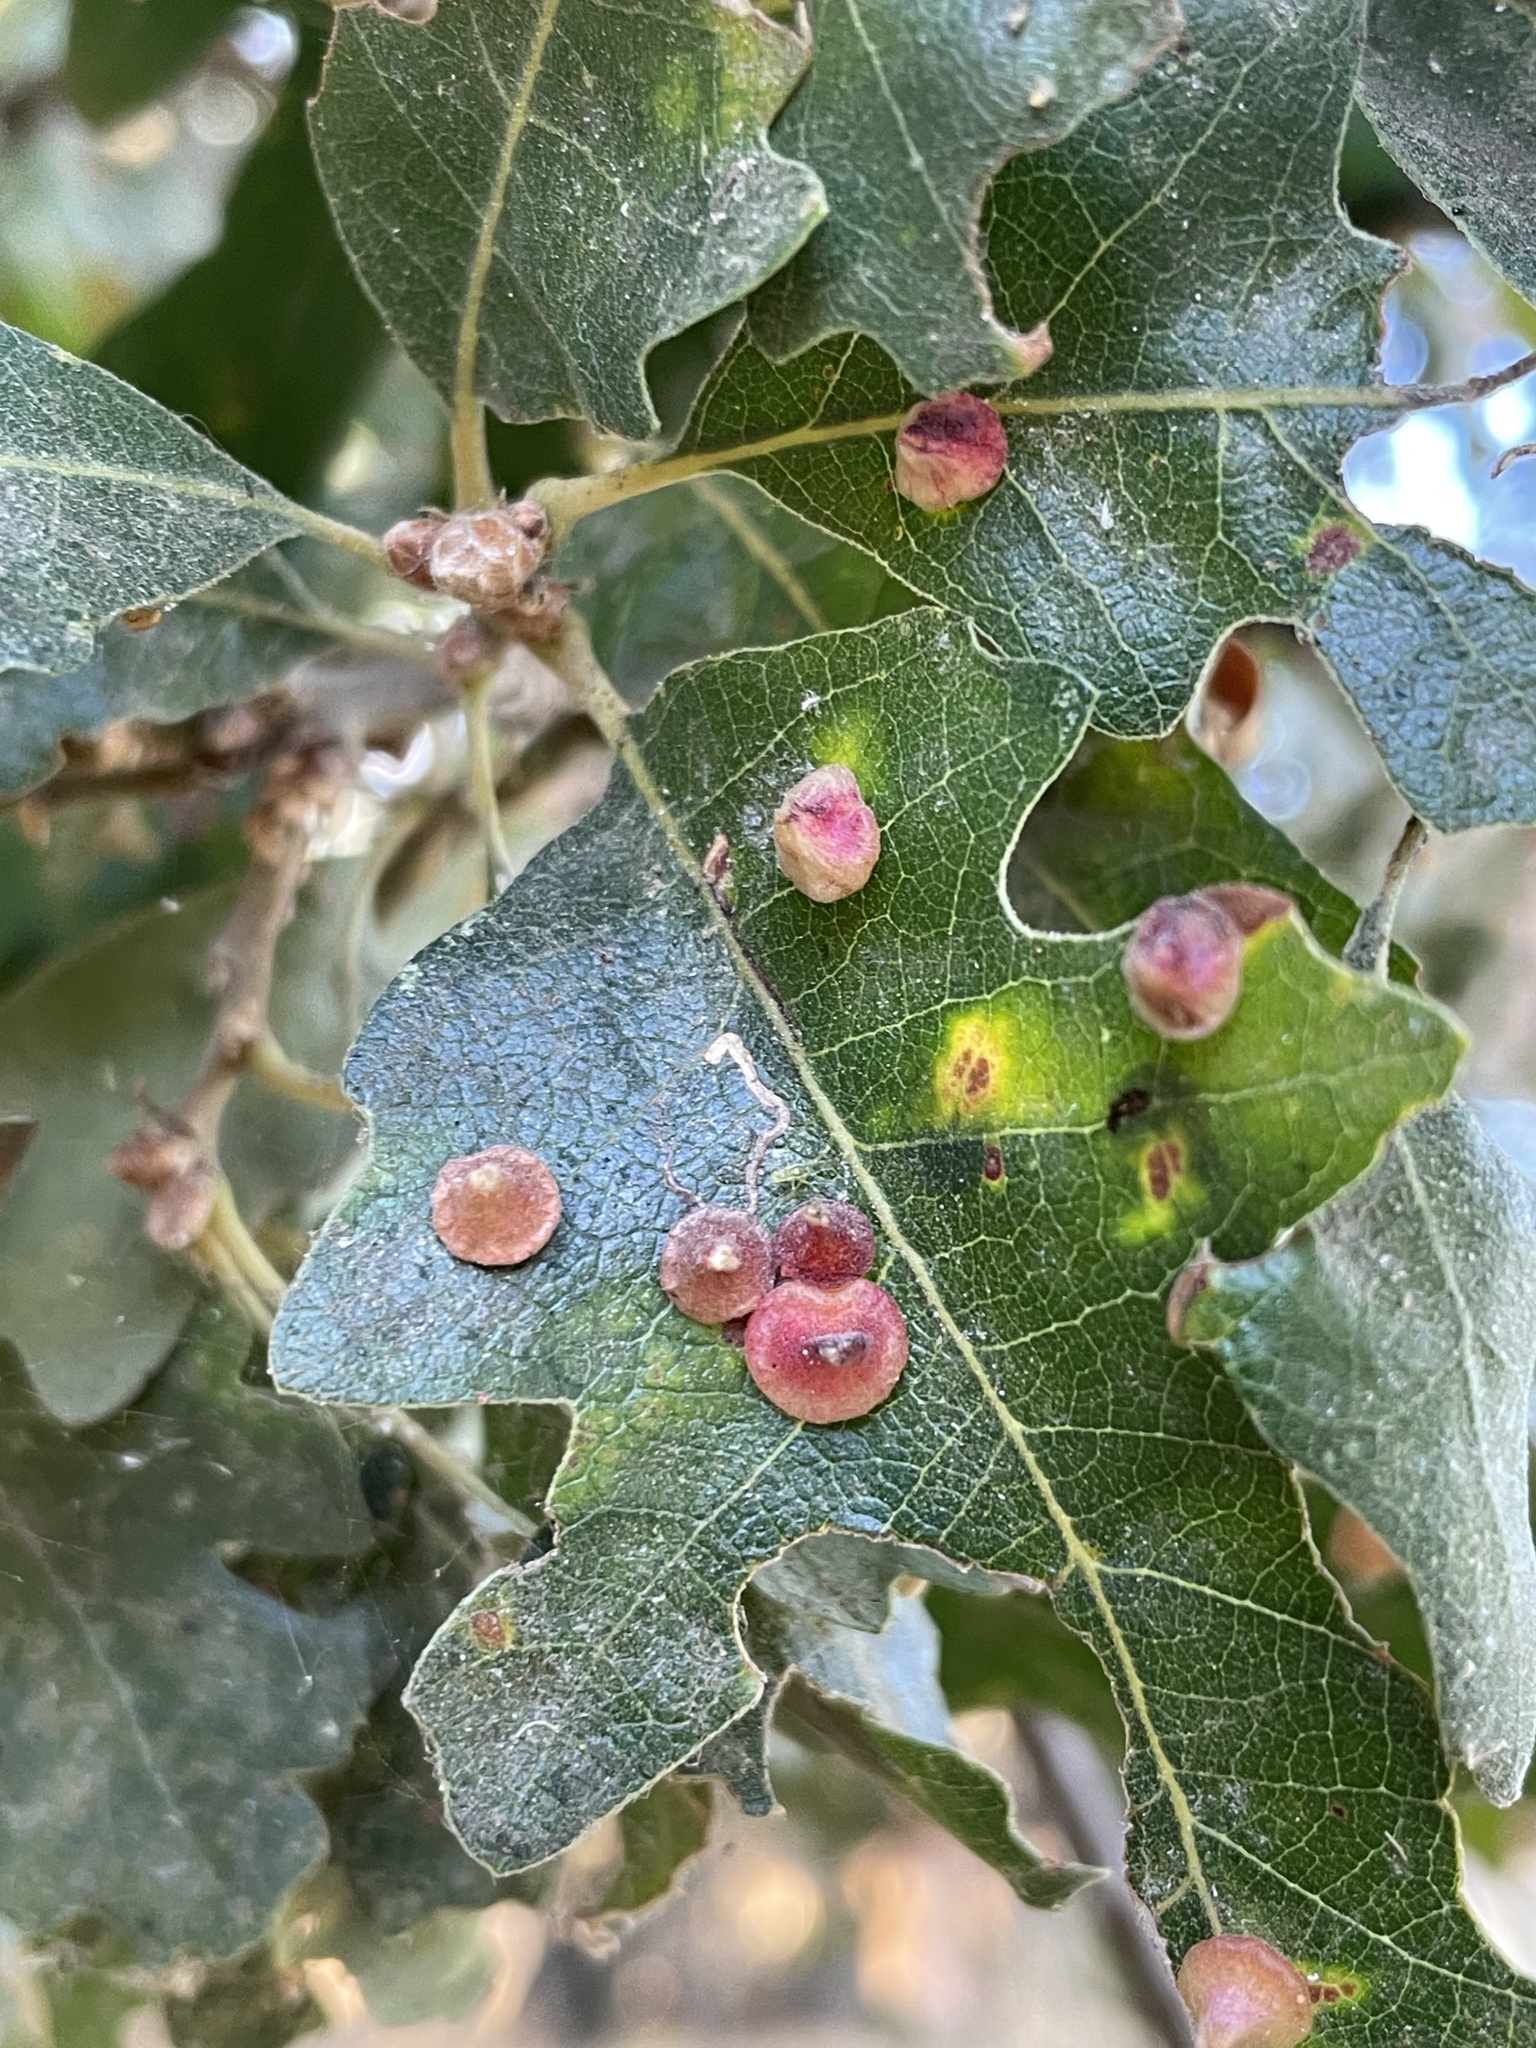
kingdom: Animalia
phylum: Arthropoda
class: Insecta
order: Hymenoptera
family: Cynipidae
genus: Andricus
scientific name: Andricus
